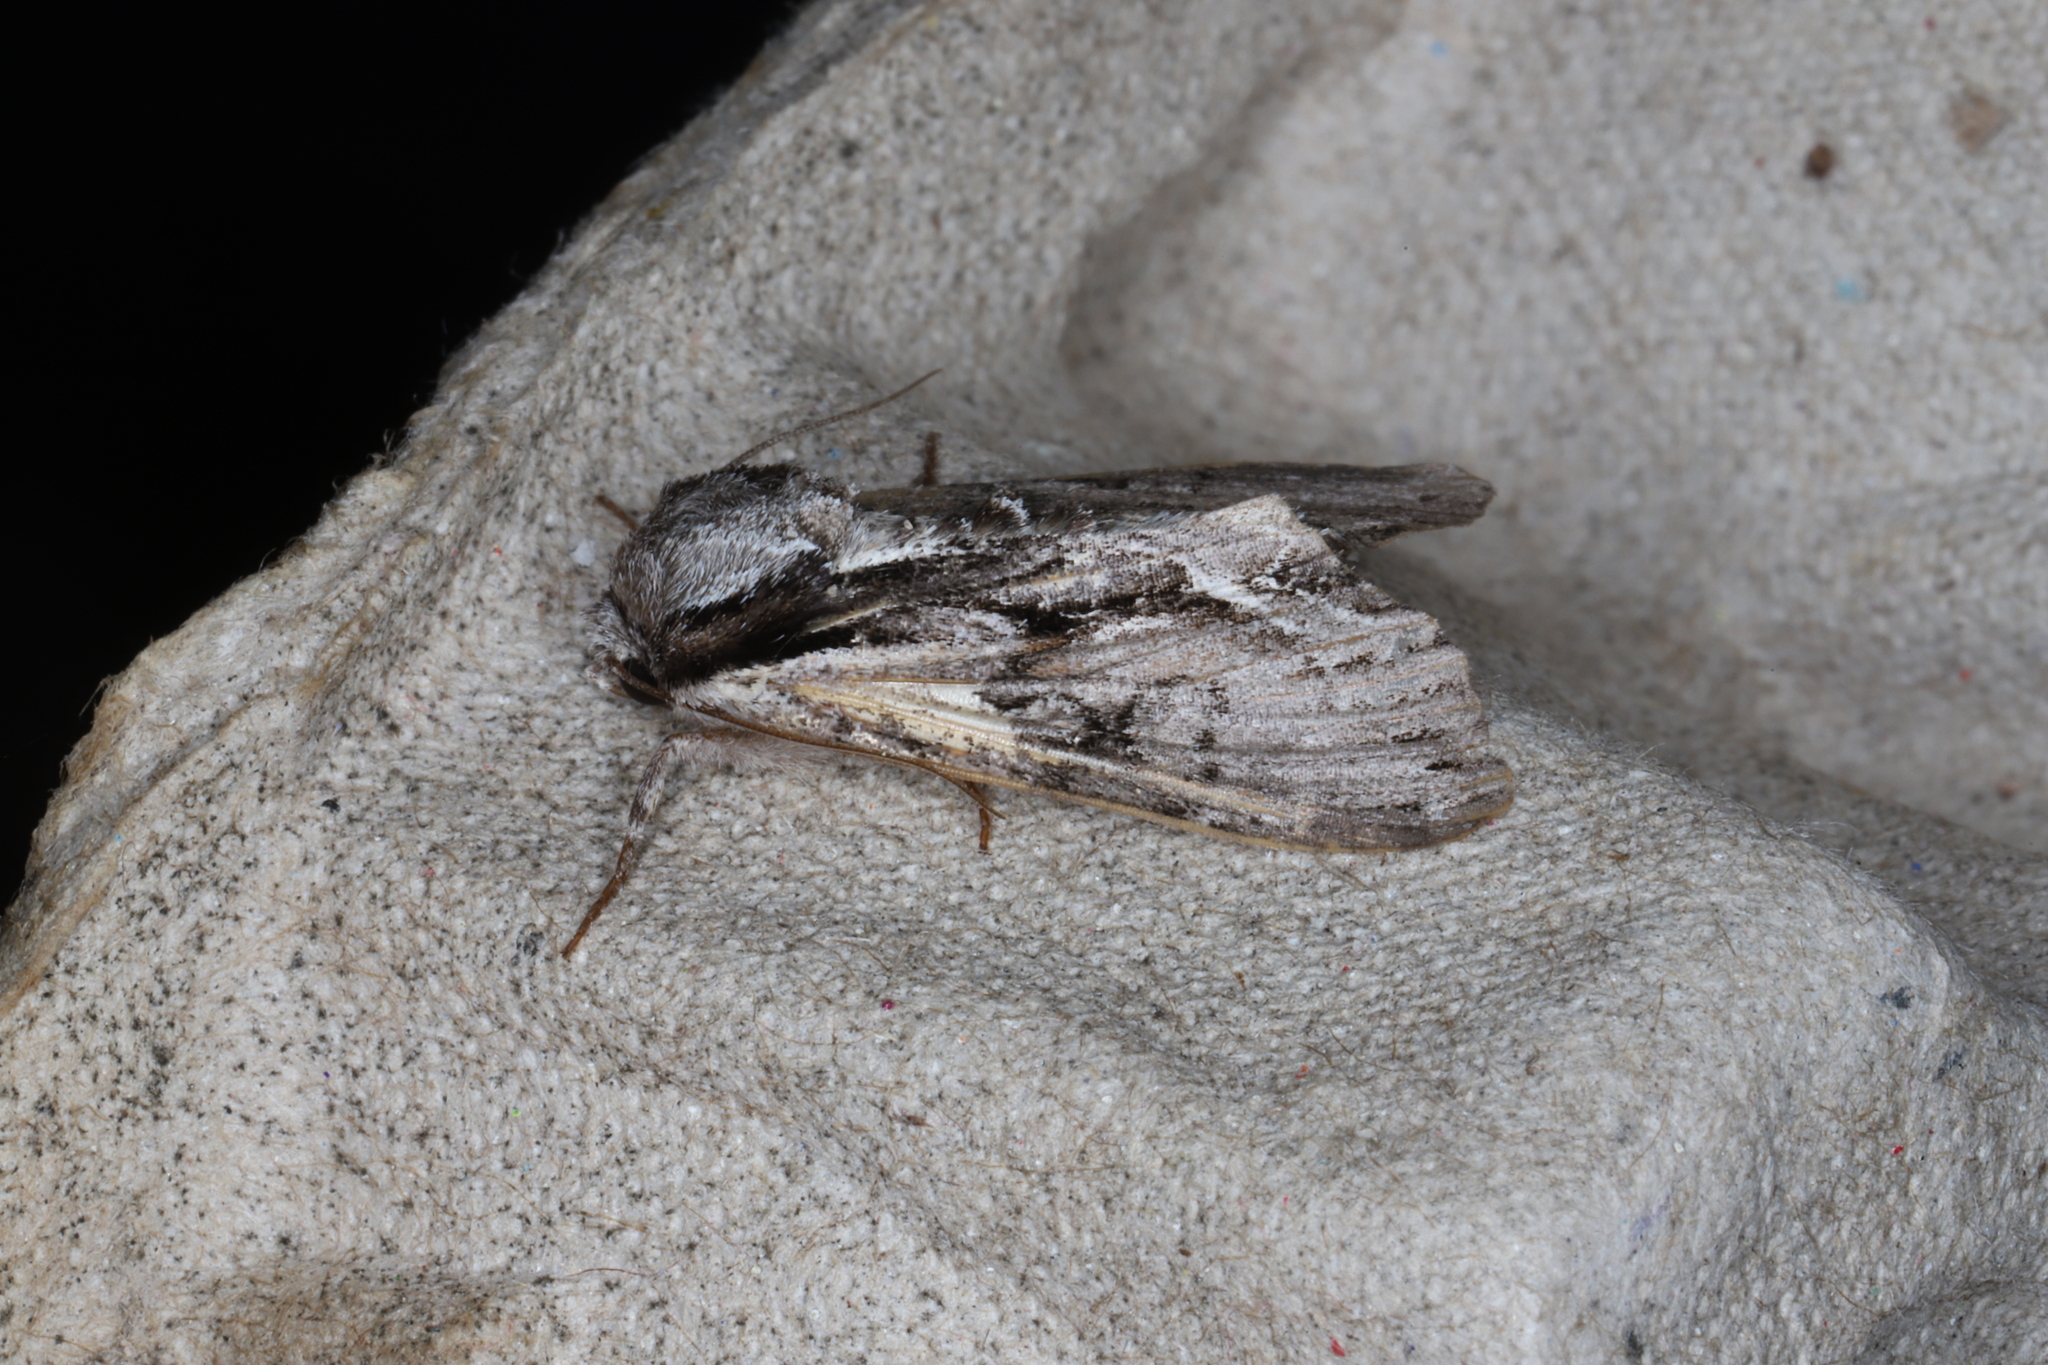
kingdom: Animalia
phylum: Arthropoda
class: Insecta
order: Lepidoptera
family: Noctuidae
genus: Hyppa
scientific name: Hyppa xylinoides
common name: Common hyppa moth
